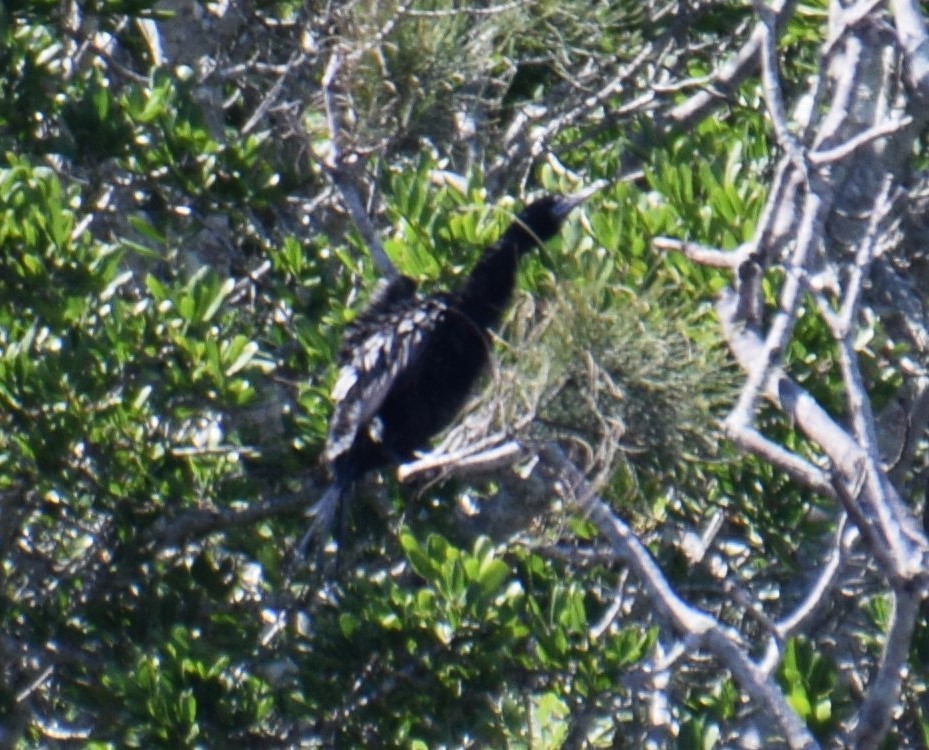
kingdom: Animalia
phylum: Chordata
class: Aves
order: Suliformes
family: Phalacrocoracidae
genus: Phalacrocorax
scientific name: Phalacrocorax sulcirostris
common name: Little black cormorant
